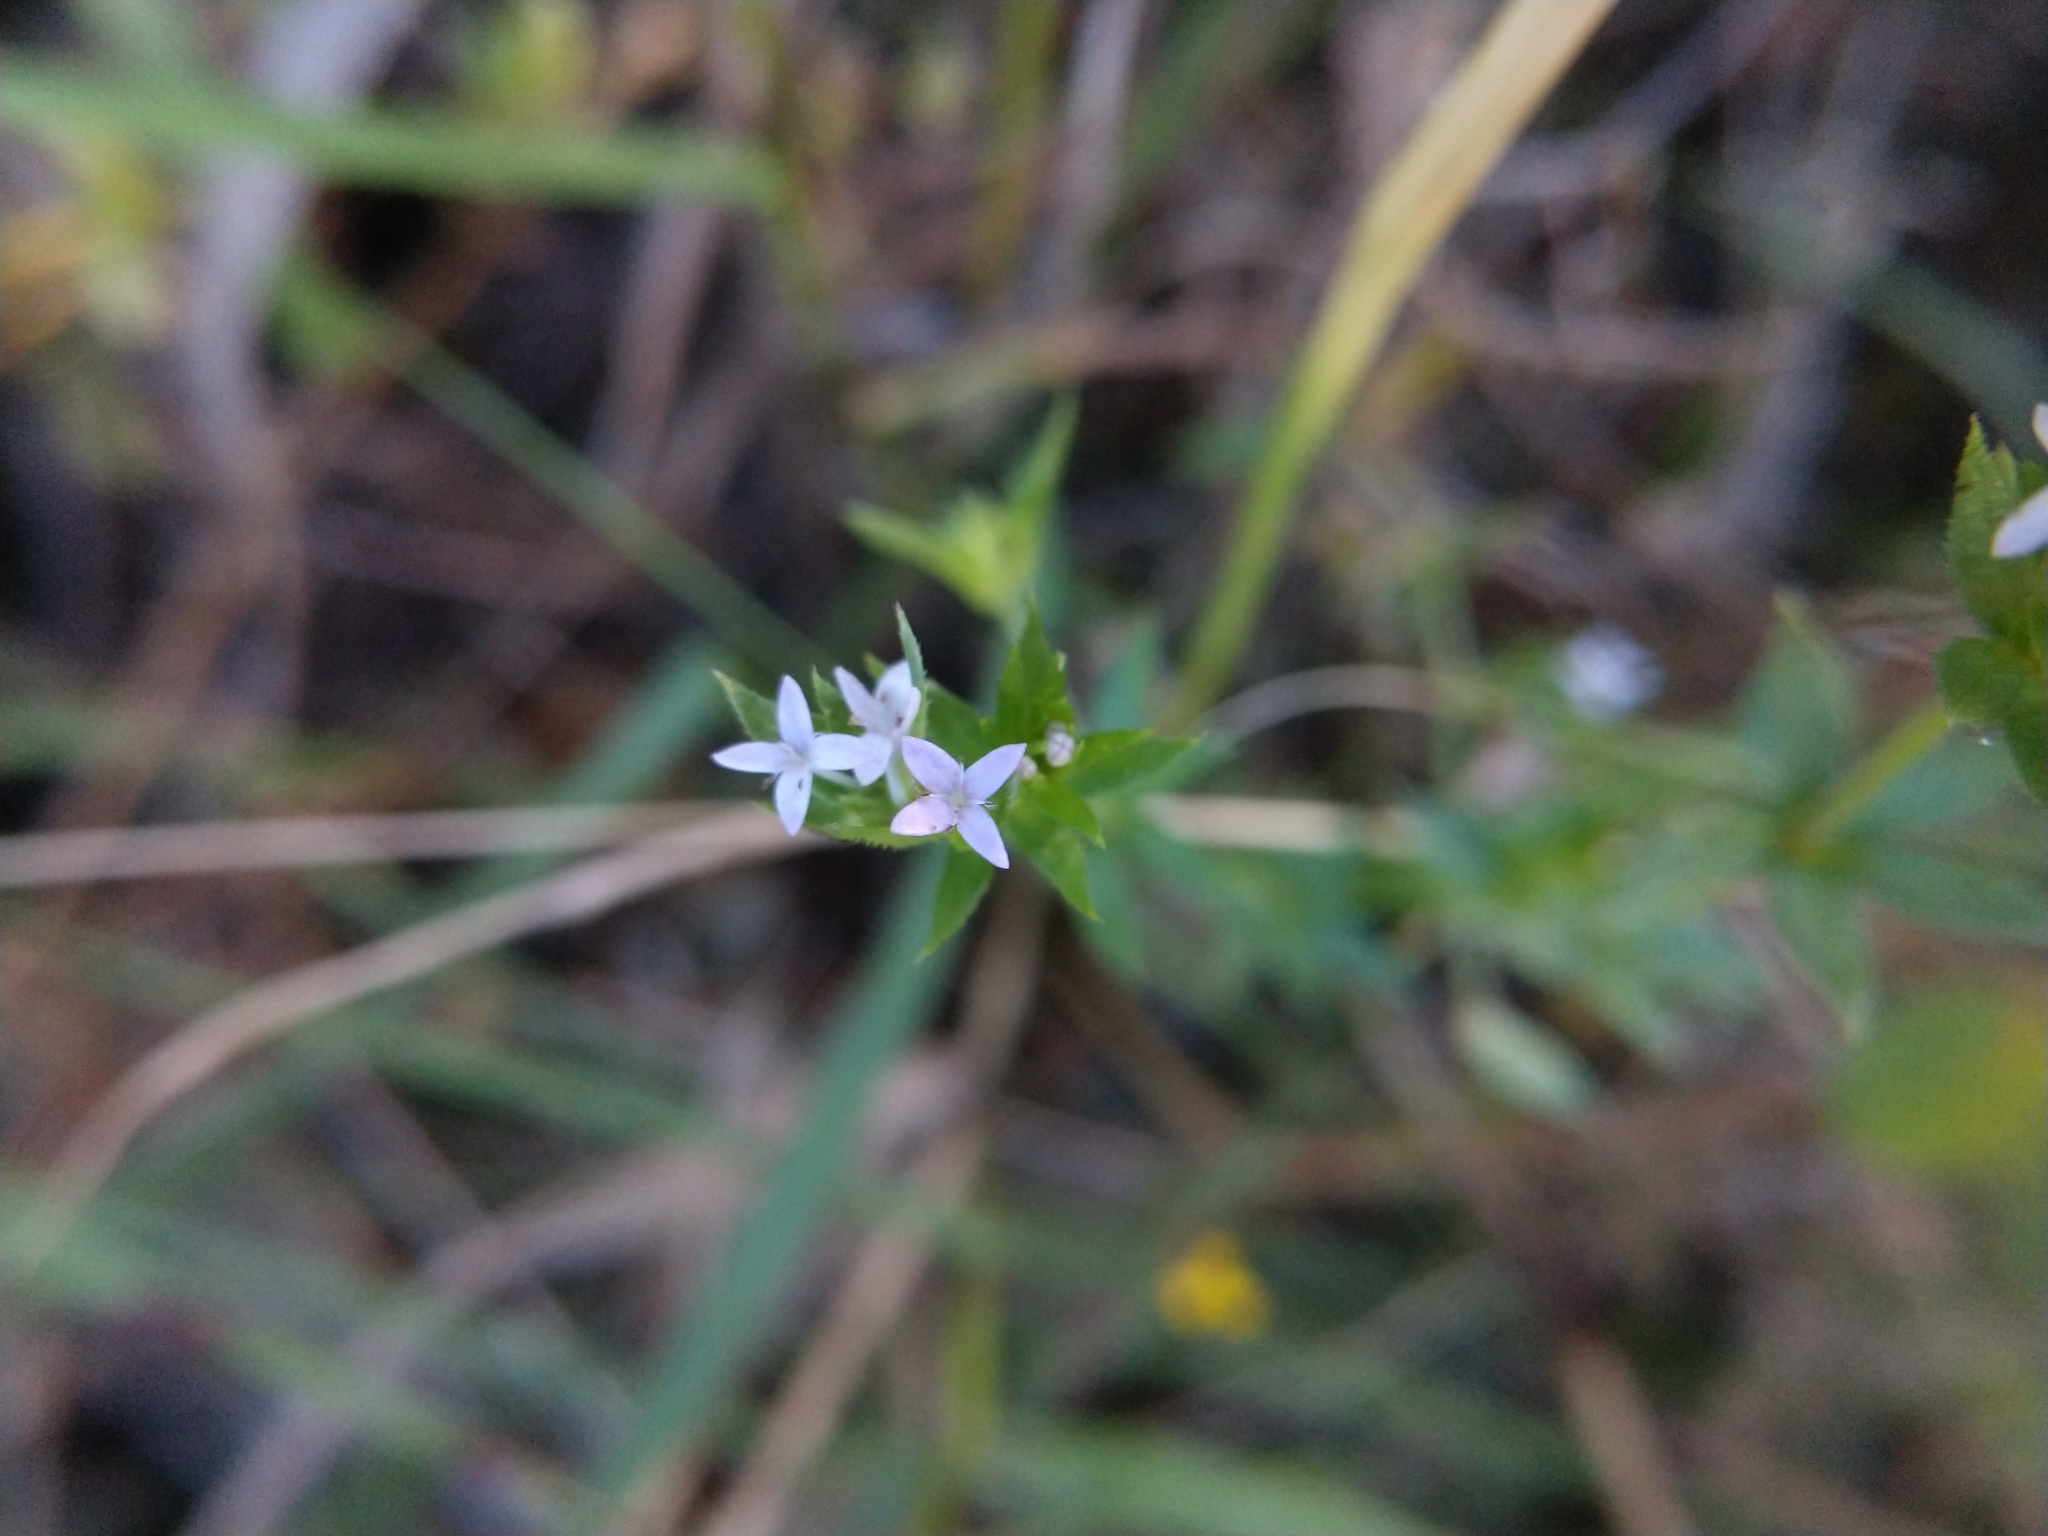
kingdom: Plantae
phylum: Tracheophyta
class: Magnoliopsida
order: Gentianales
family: Rubiaceae
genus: Sherardia
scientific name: Sherardia arvensis
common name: Field madder
